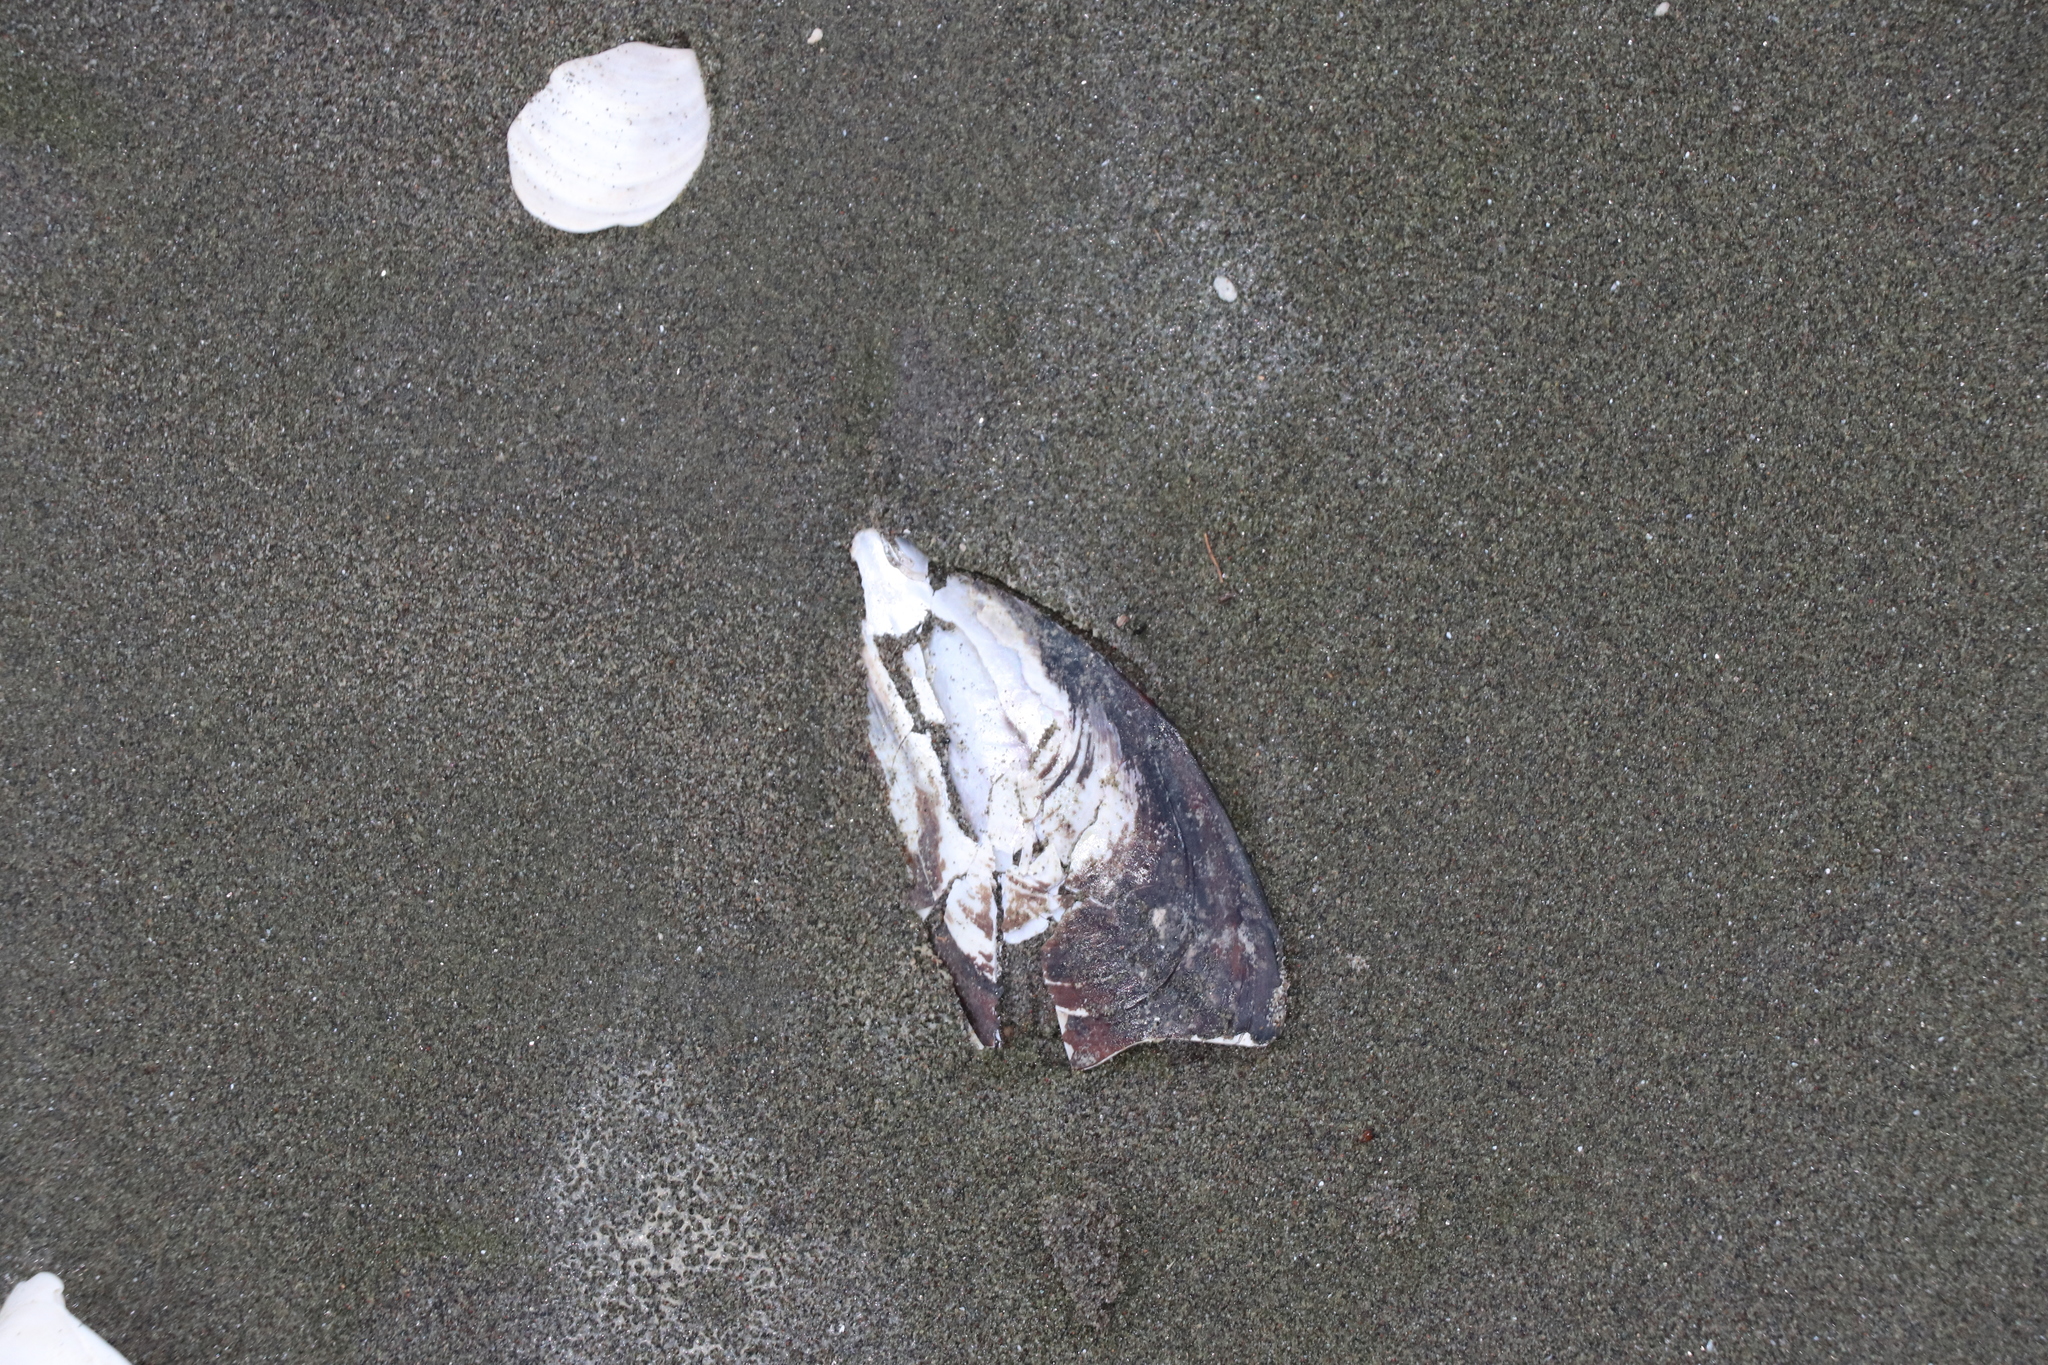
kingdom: Animalia
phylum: Mollusca
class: Bivalvia
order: Mytilida
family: Mytilidae
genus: Perna
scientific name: Perna canaliculus
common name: New zealand greenshelltm
